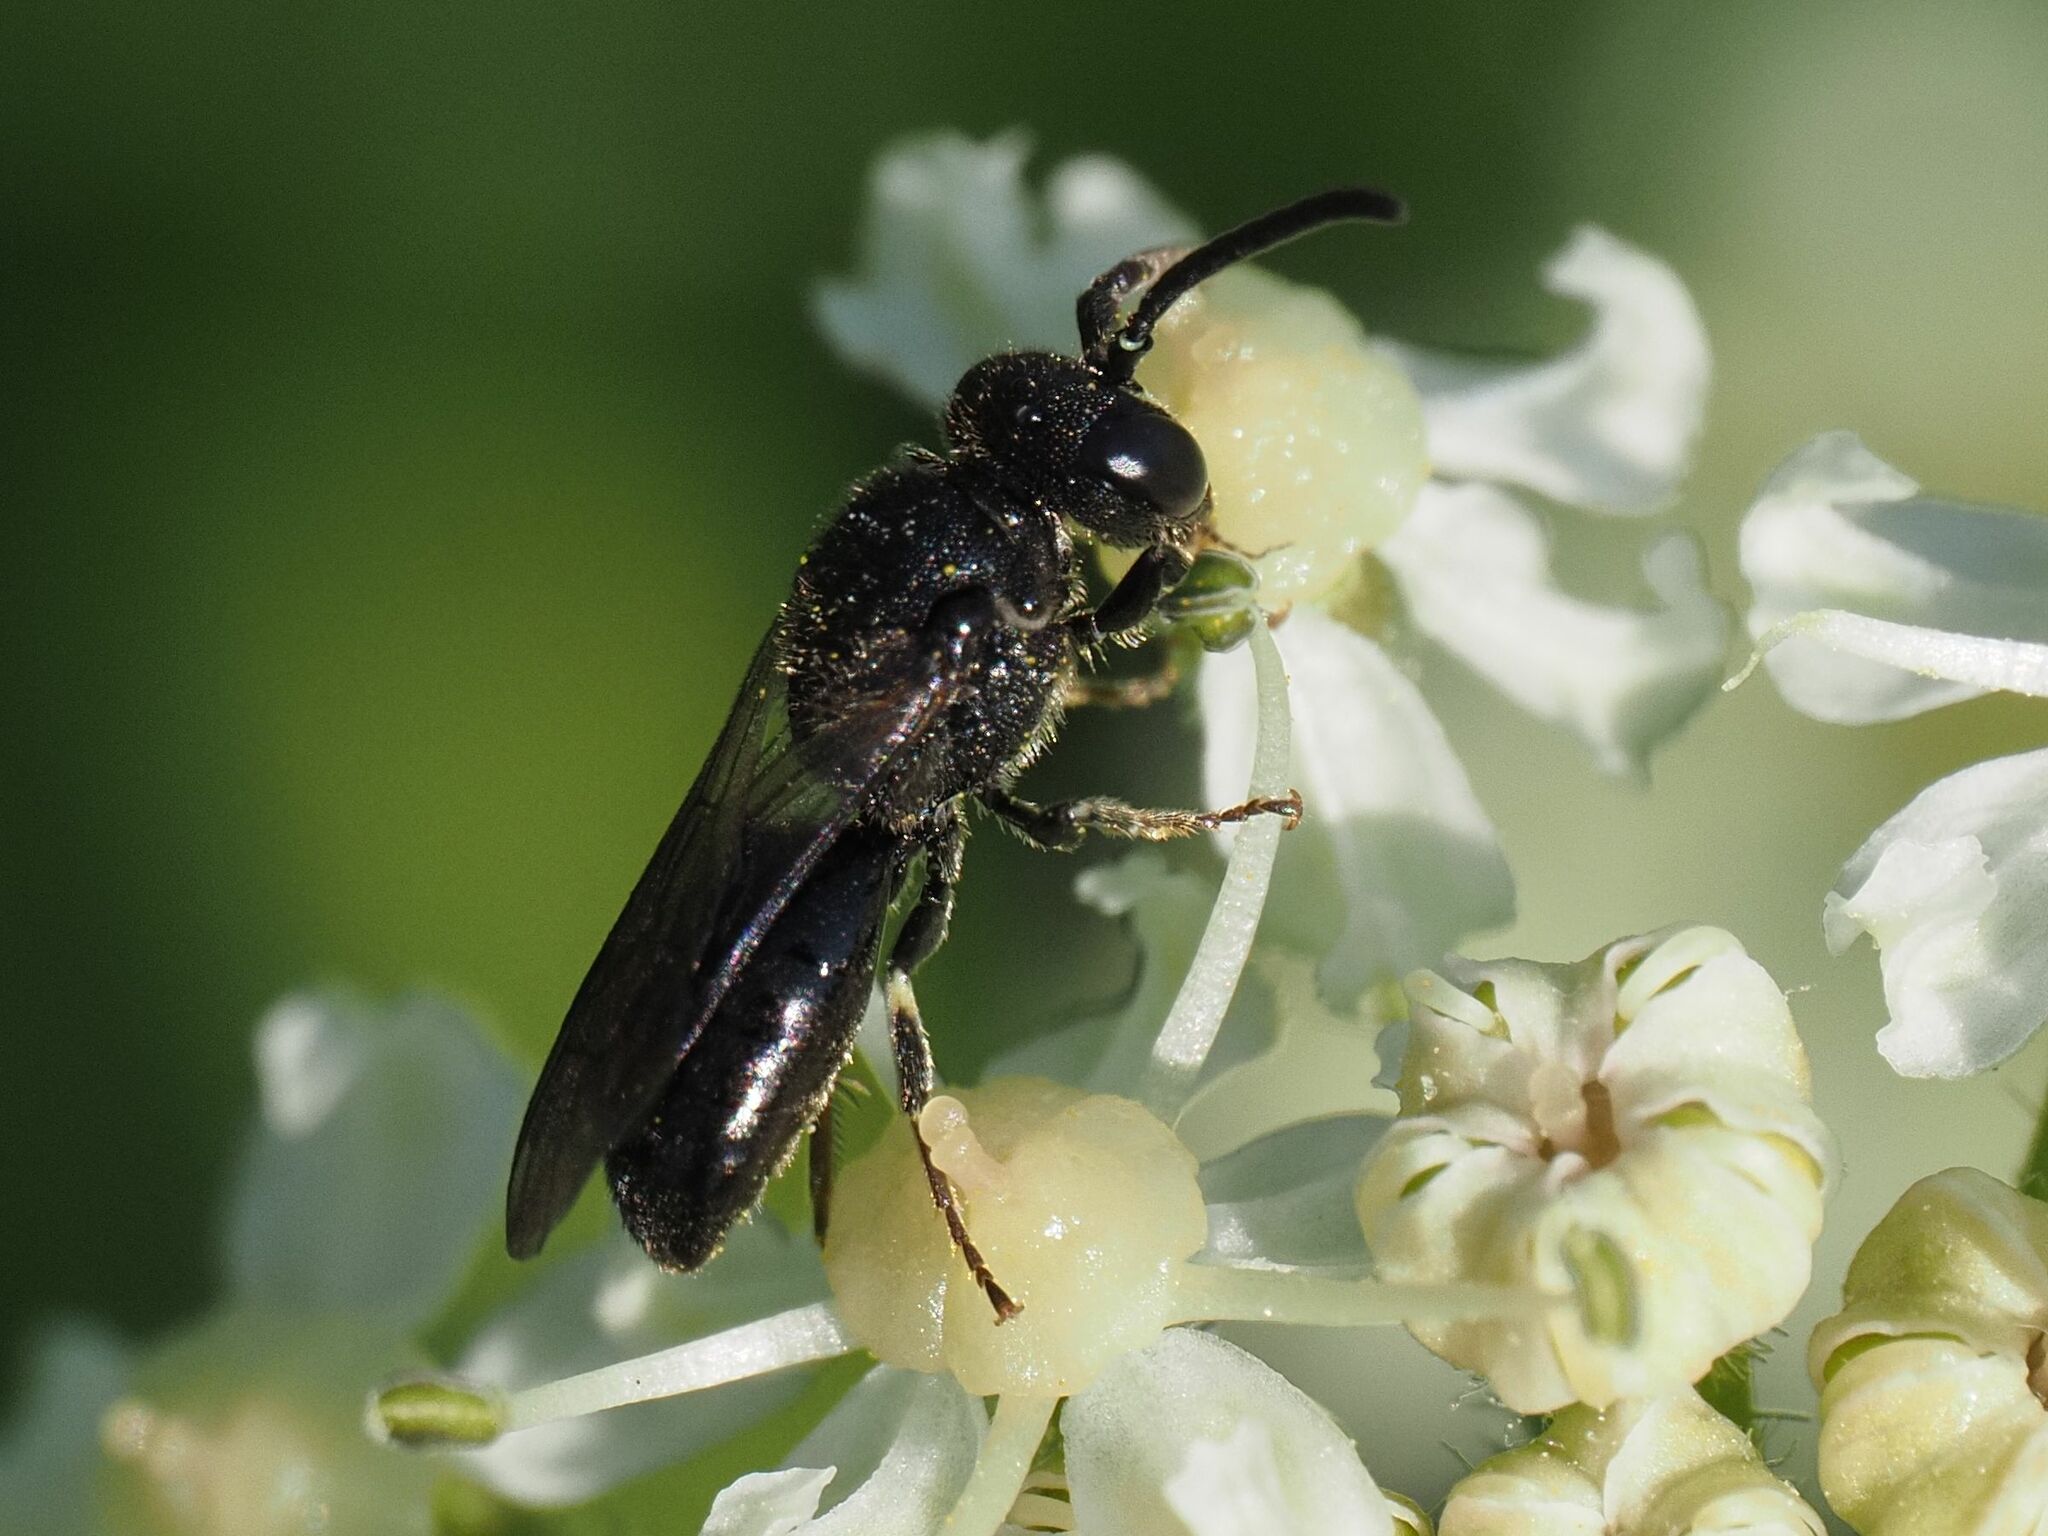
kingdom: Animalia
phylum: Arthropoda
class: Insecta
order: Hymenoptera
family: Colletidae
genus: Hylaeus
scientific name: Hylaeus communis
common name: Common yellow-face bee
